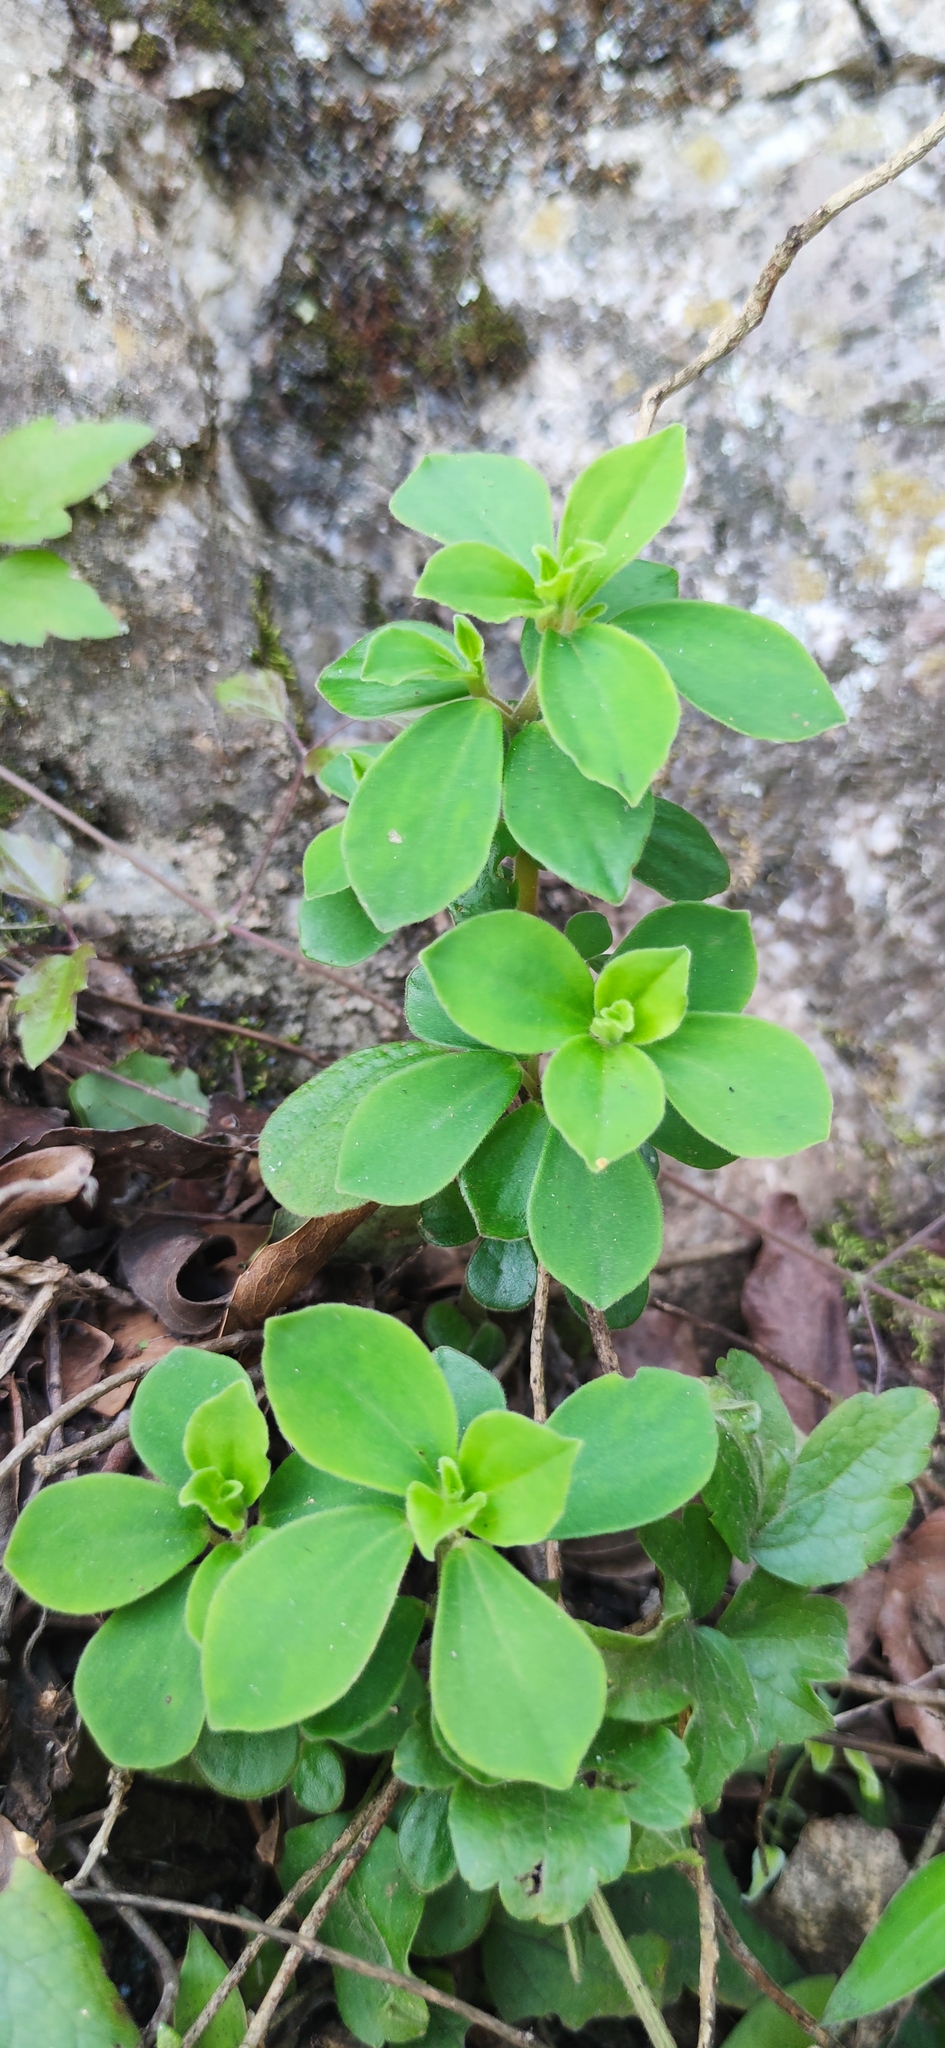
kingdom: Plantae
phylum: Tracheophyta
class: Magnoliopsida
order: Piperales
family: Piperaceae
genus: Peperomia
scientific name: Peperomia liebmannii
